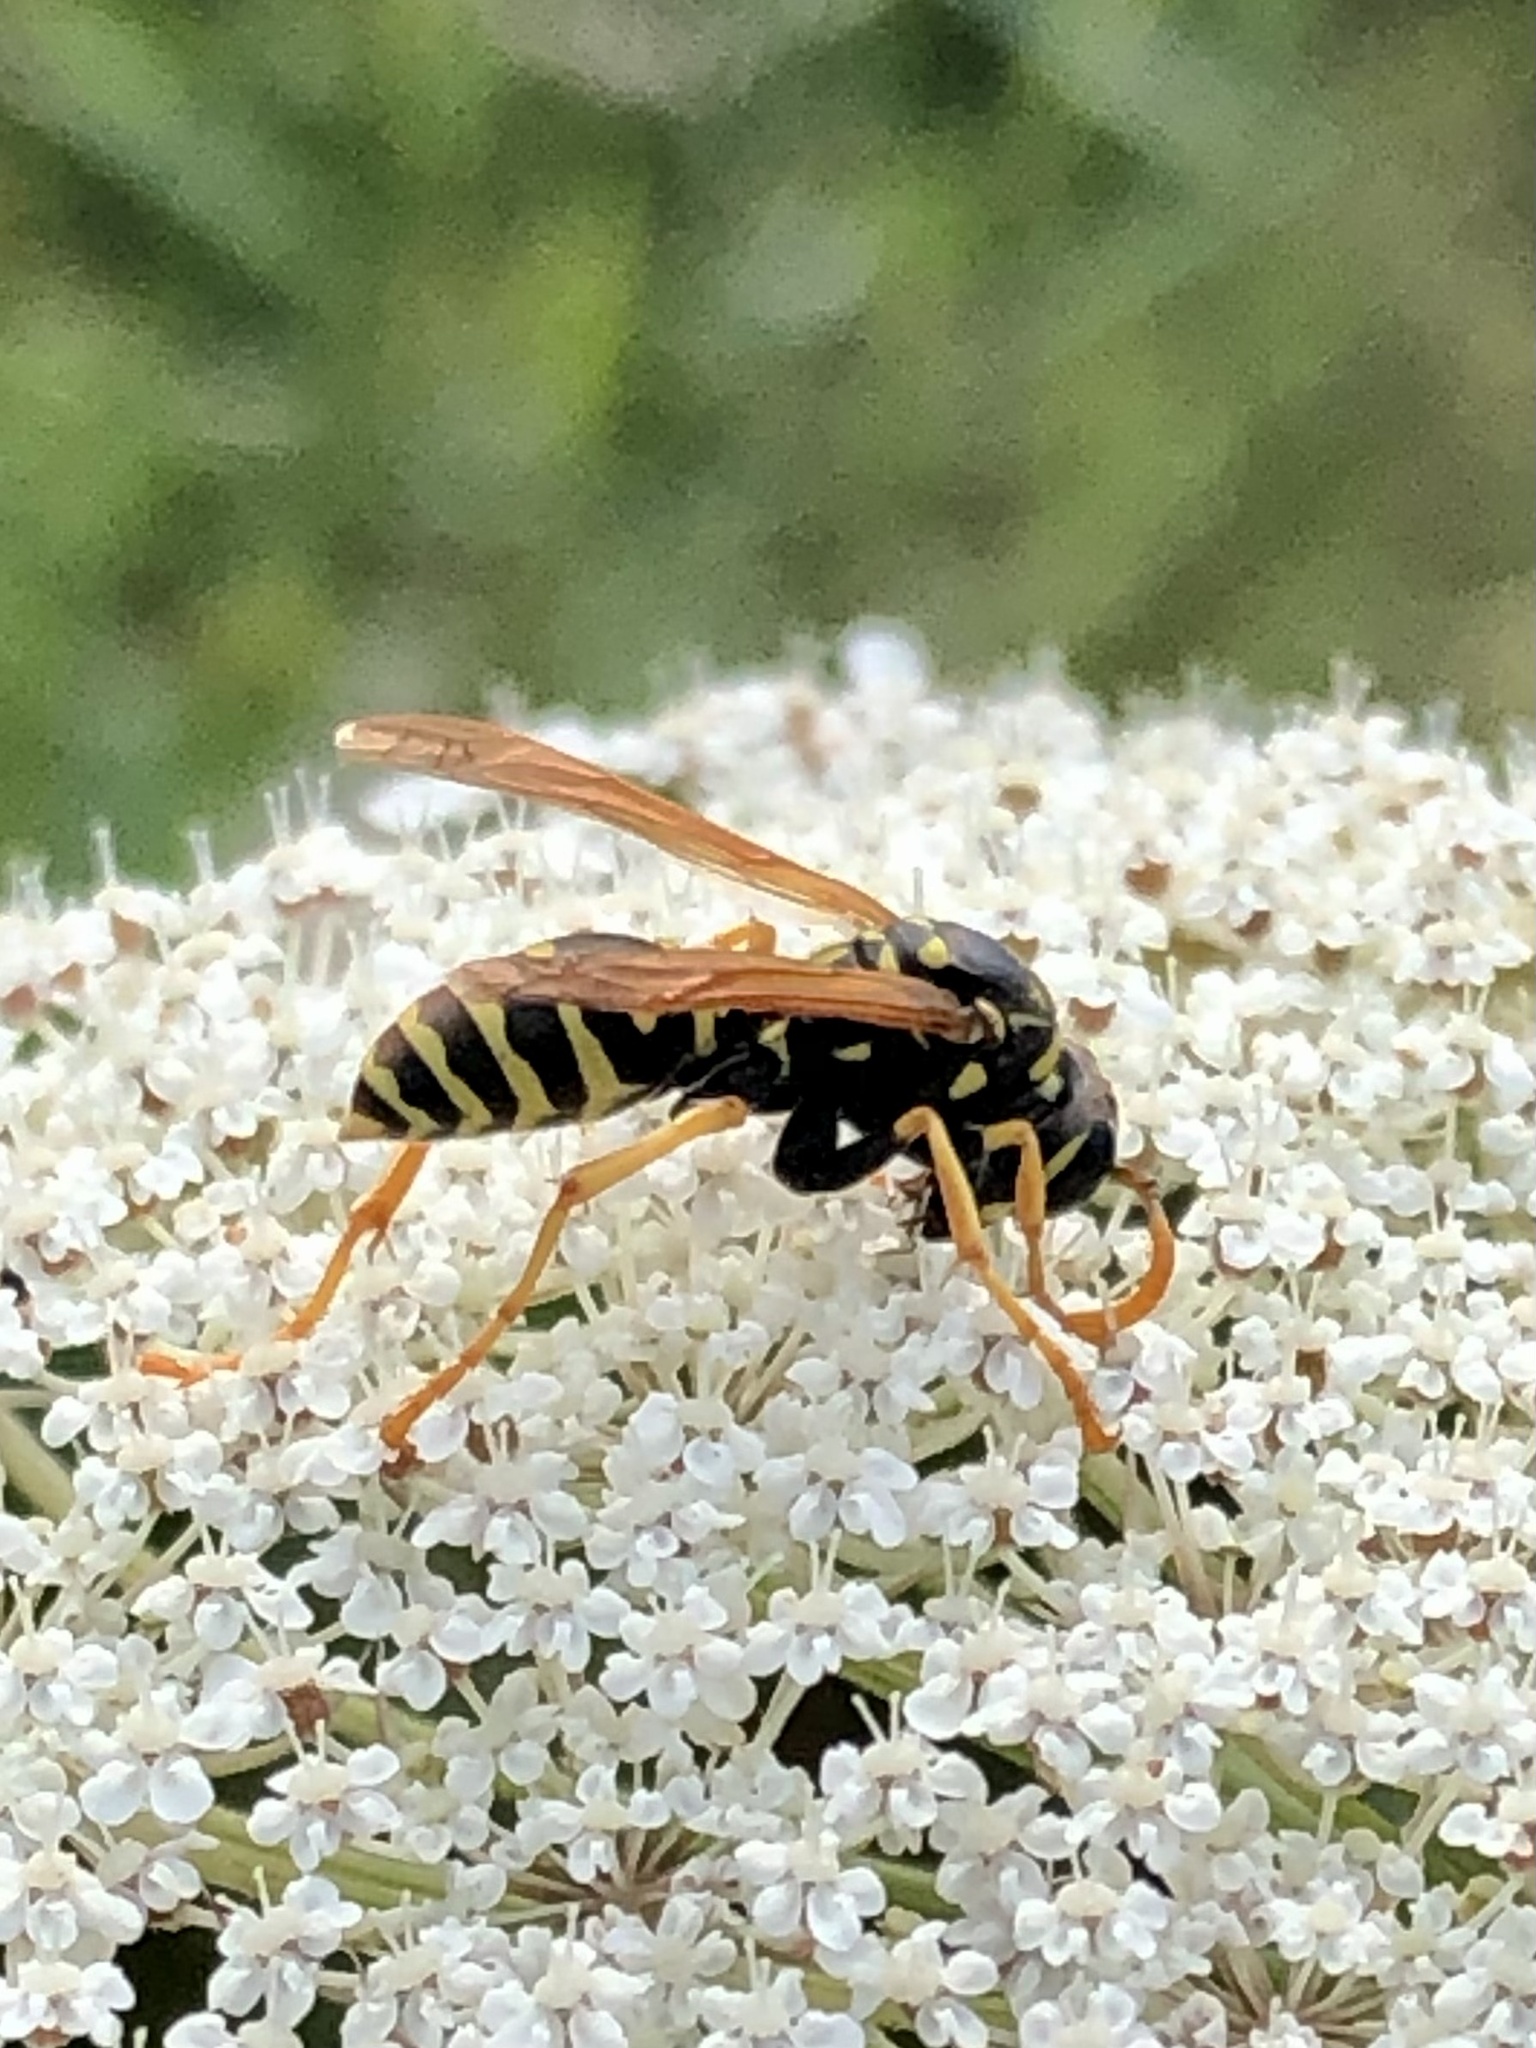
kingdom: Animalia
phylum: Arthropoda
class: Insecta
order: Hymenoptera
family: Eumenidae
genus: Polistes
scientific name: Polistes dominula
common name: Paper wasp
